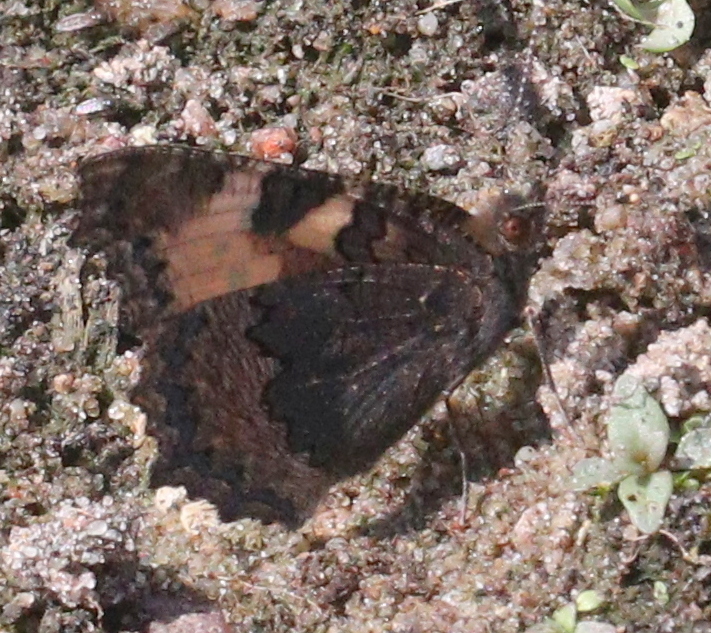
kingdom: Animalia
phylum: Arthropoda
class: Insecta
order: Lepidoptera
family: Nymphalidae
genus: Aglais
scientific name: Aglais urticae
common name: Small tortoiseshell
